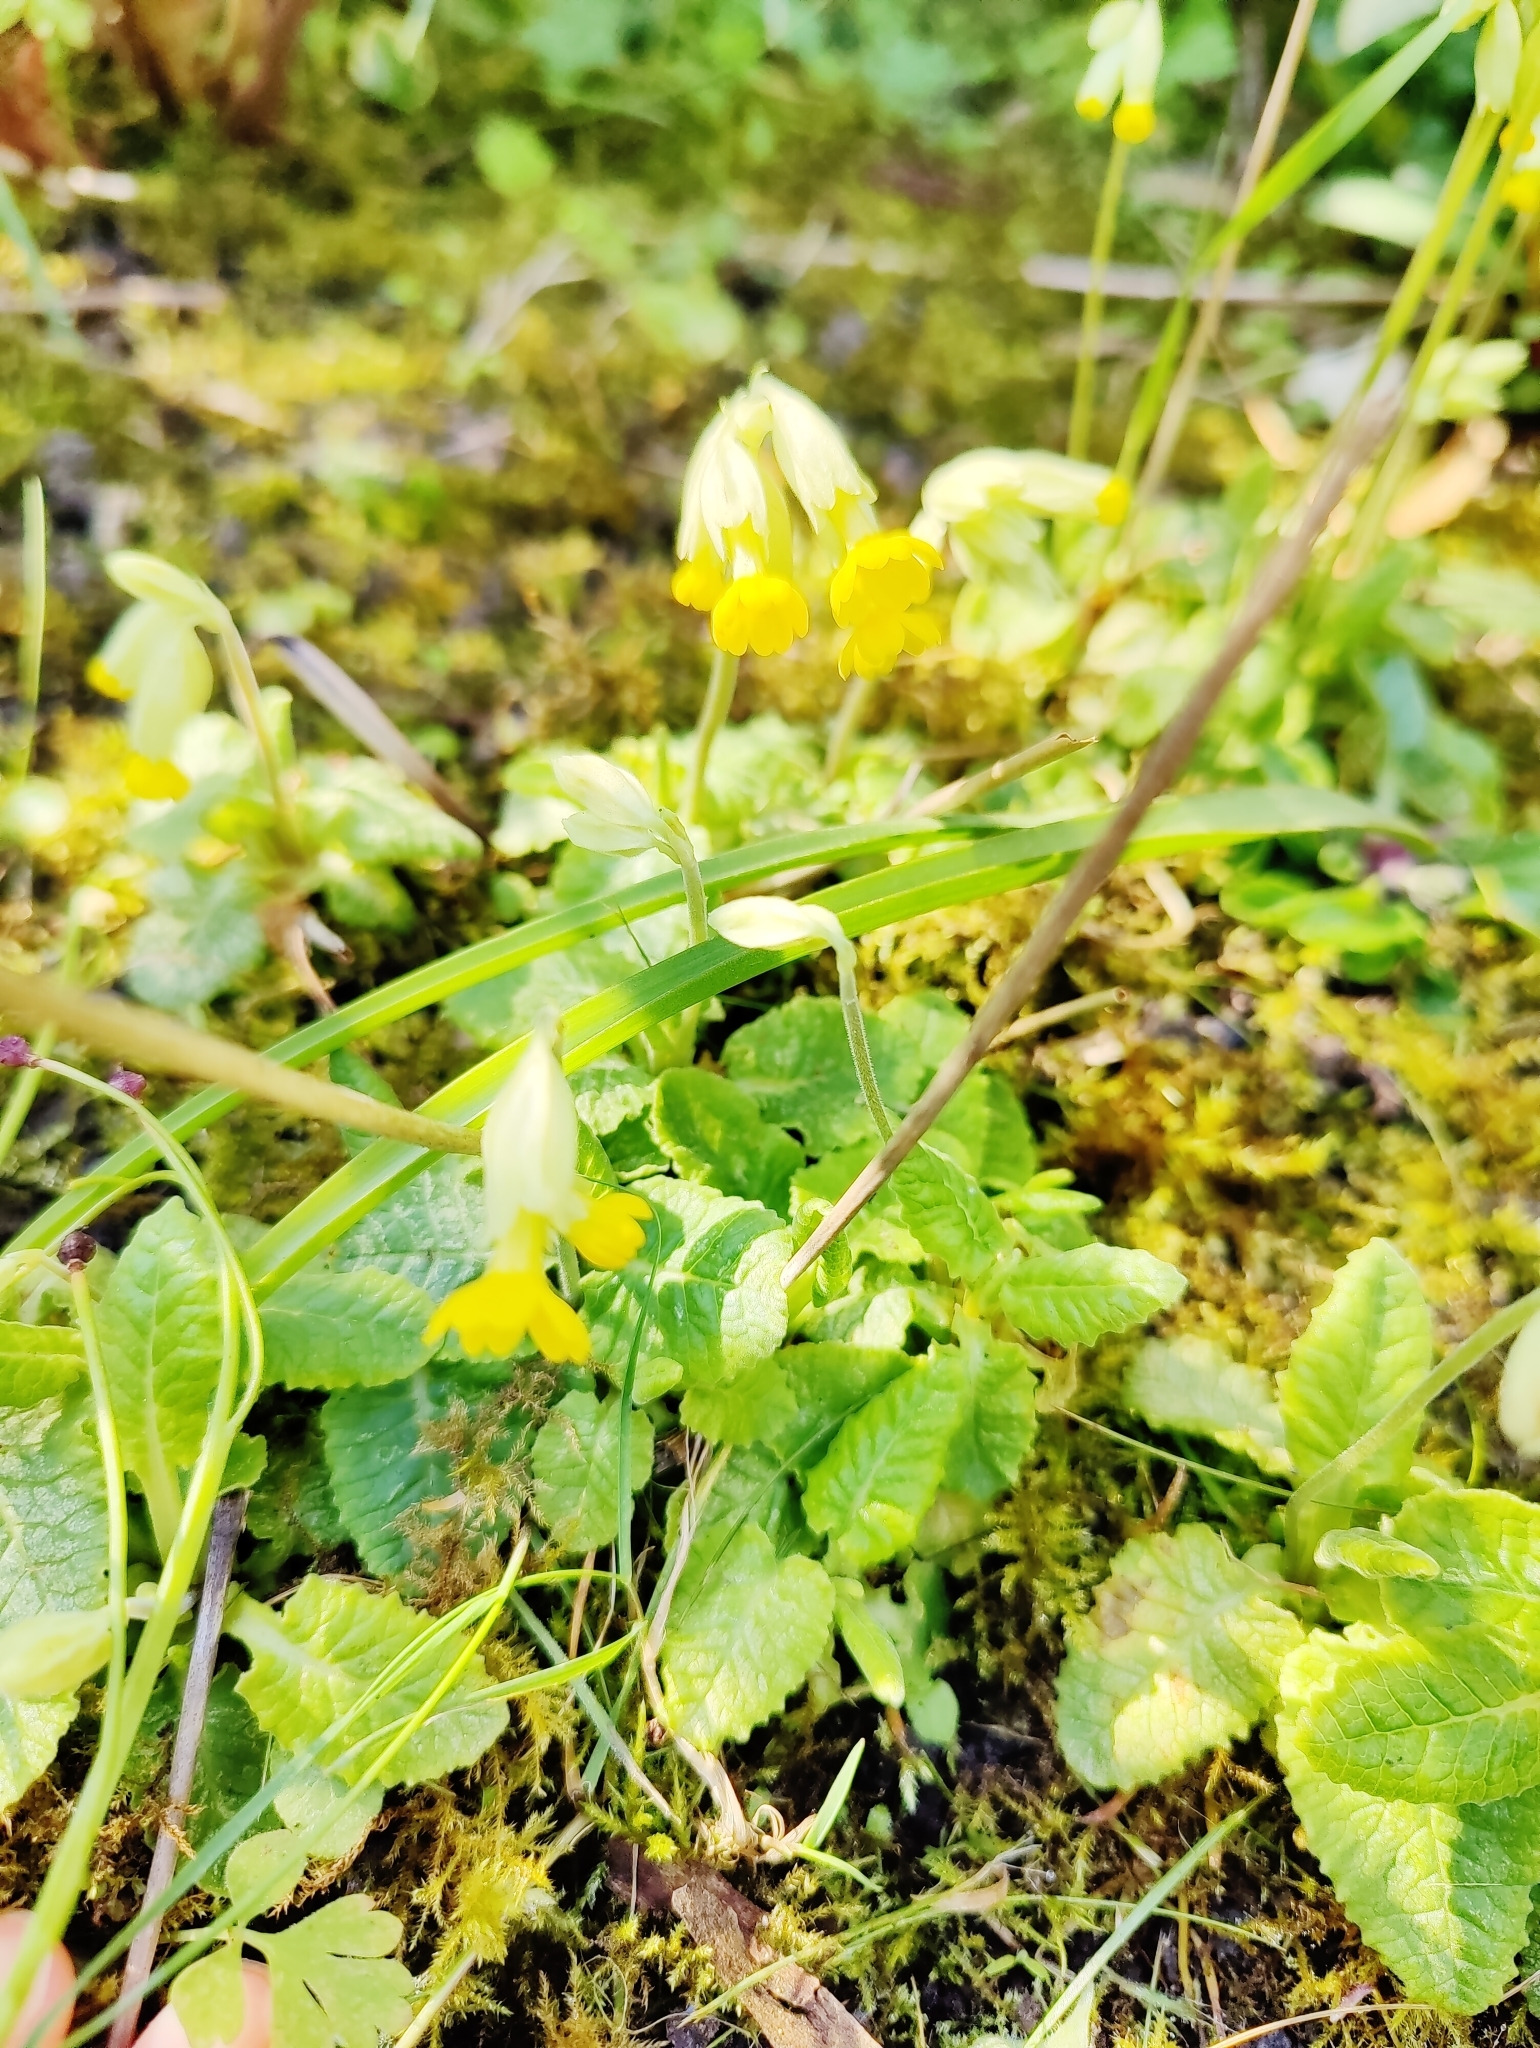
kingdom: Plantae
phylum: Tracheophyta
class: Magnoliopsida
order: Ericales
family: Primulaceae
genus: Primula
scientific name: Primula veris
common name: Cowslip
